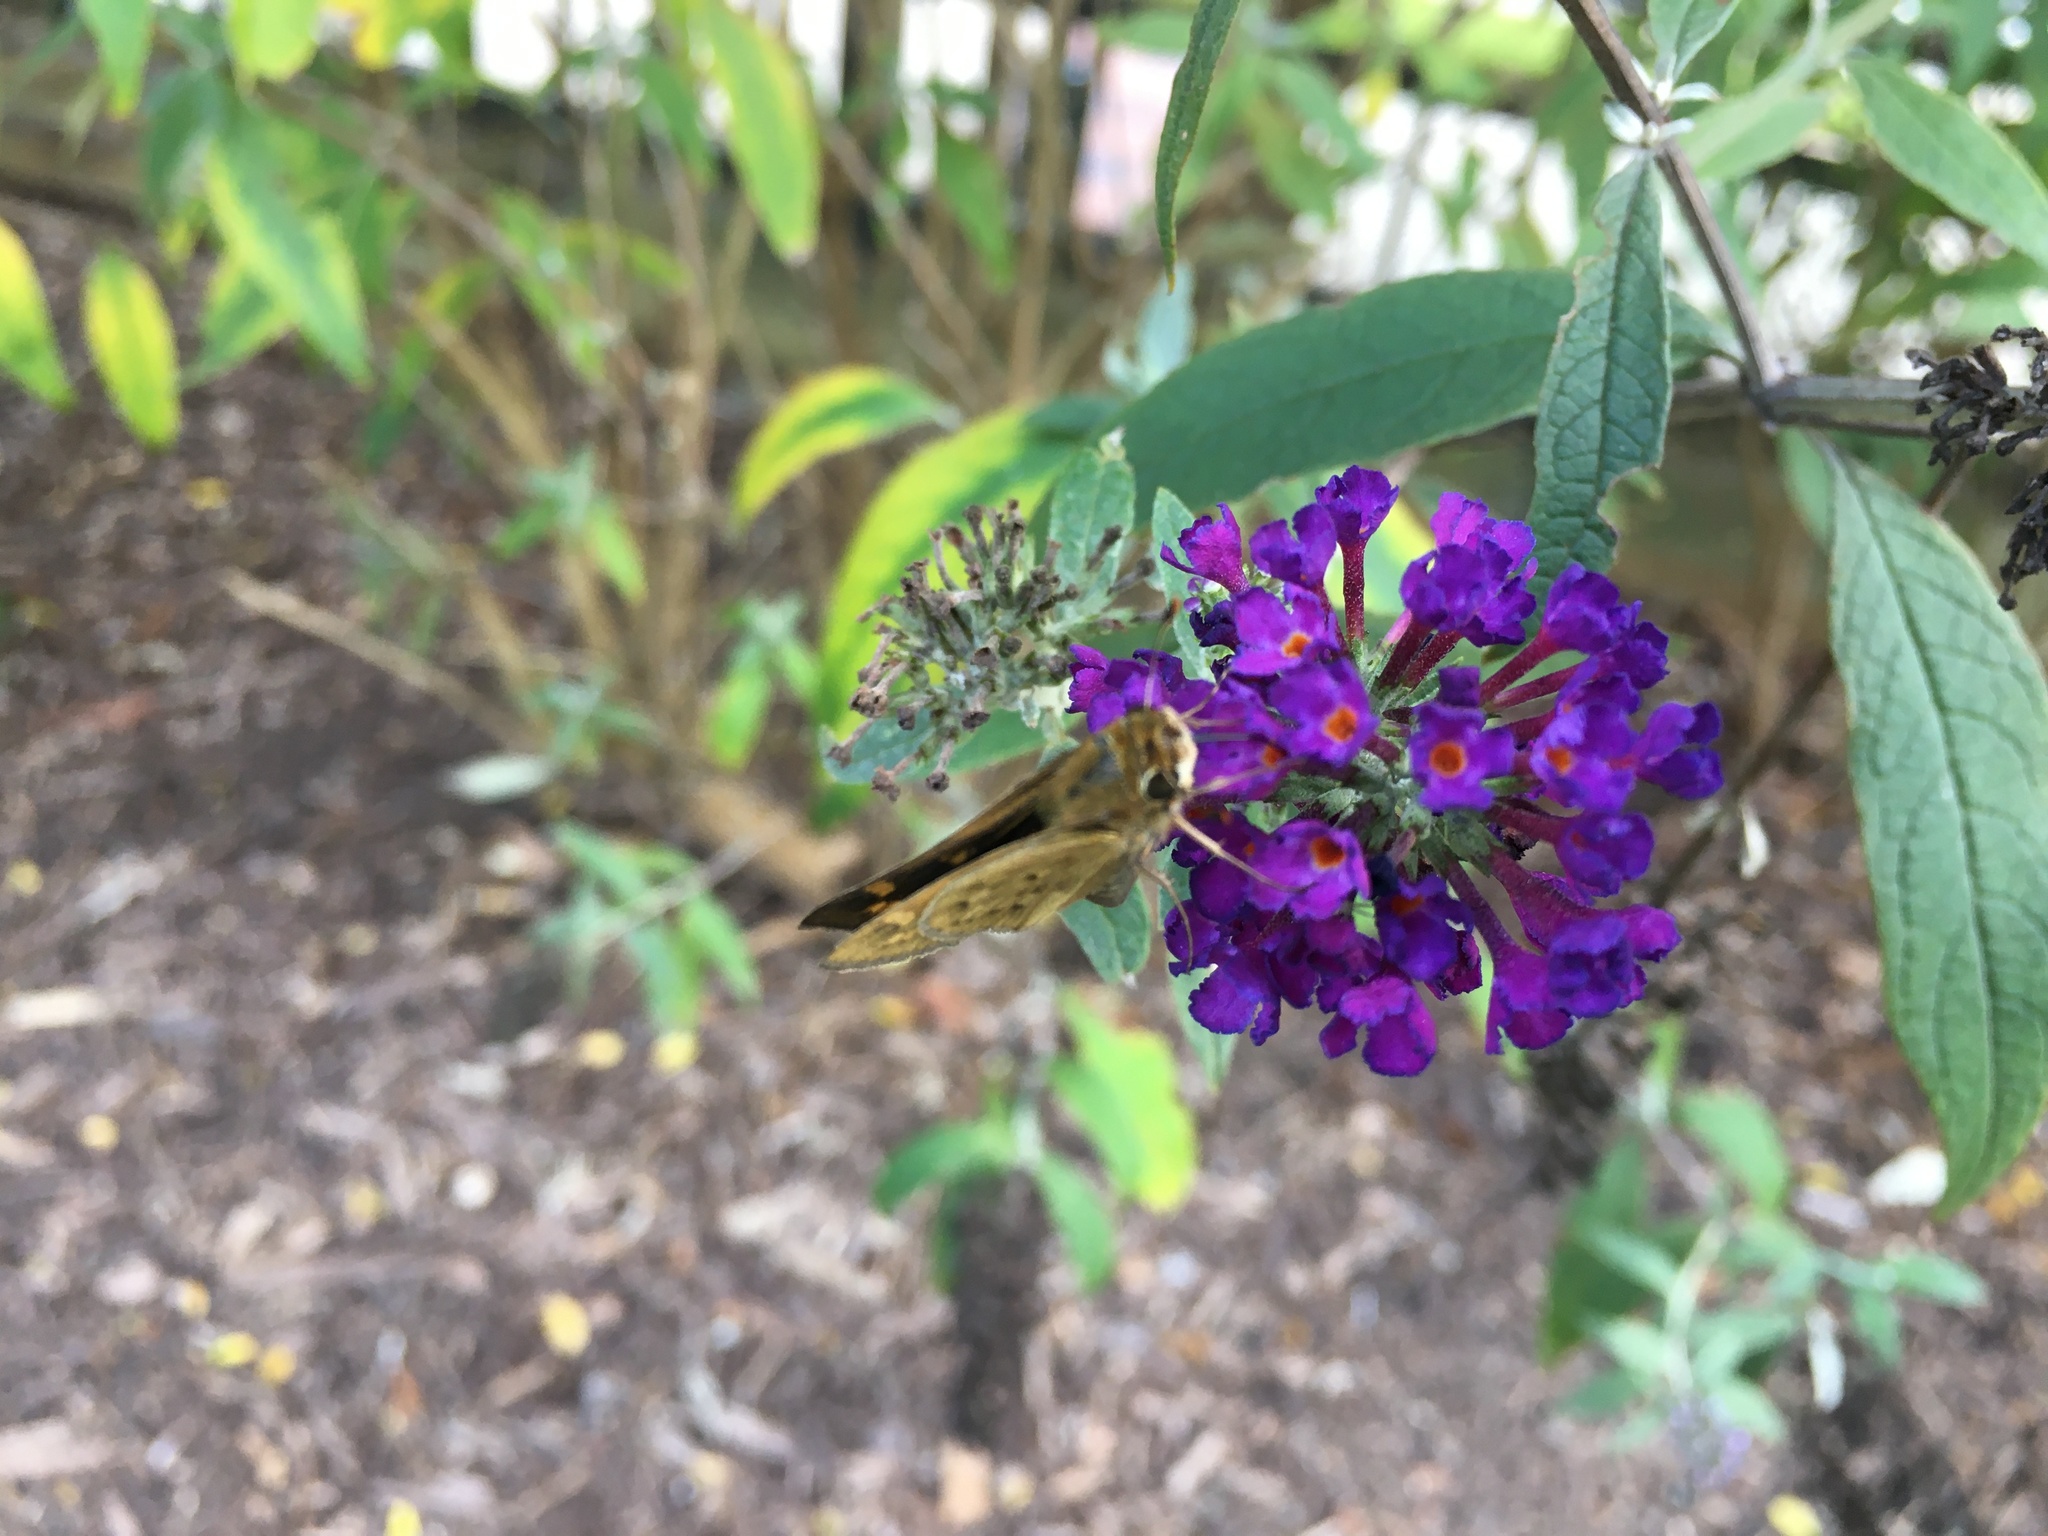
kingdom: Animalia
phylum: Arthropoda
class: Insecta
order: Lepidoptera
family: Hesperiidae
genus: Hylephila
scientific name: Hylephila phyleus
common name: Fiery skipper
